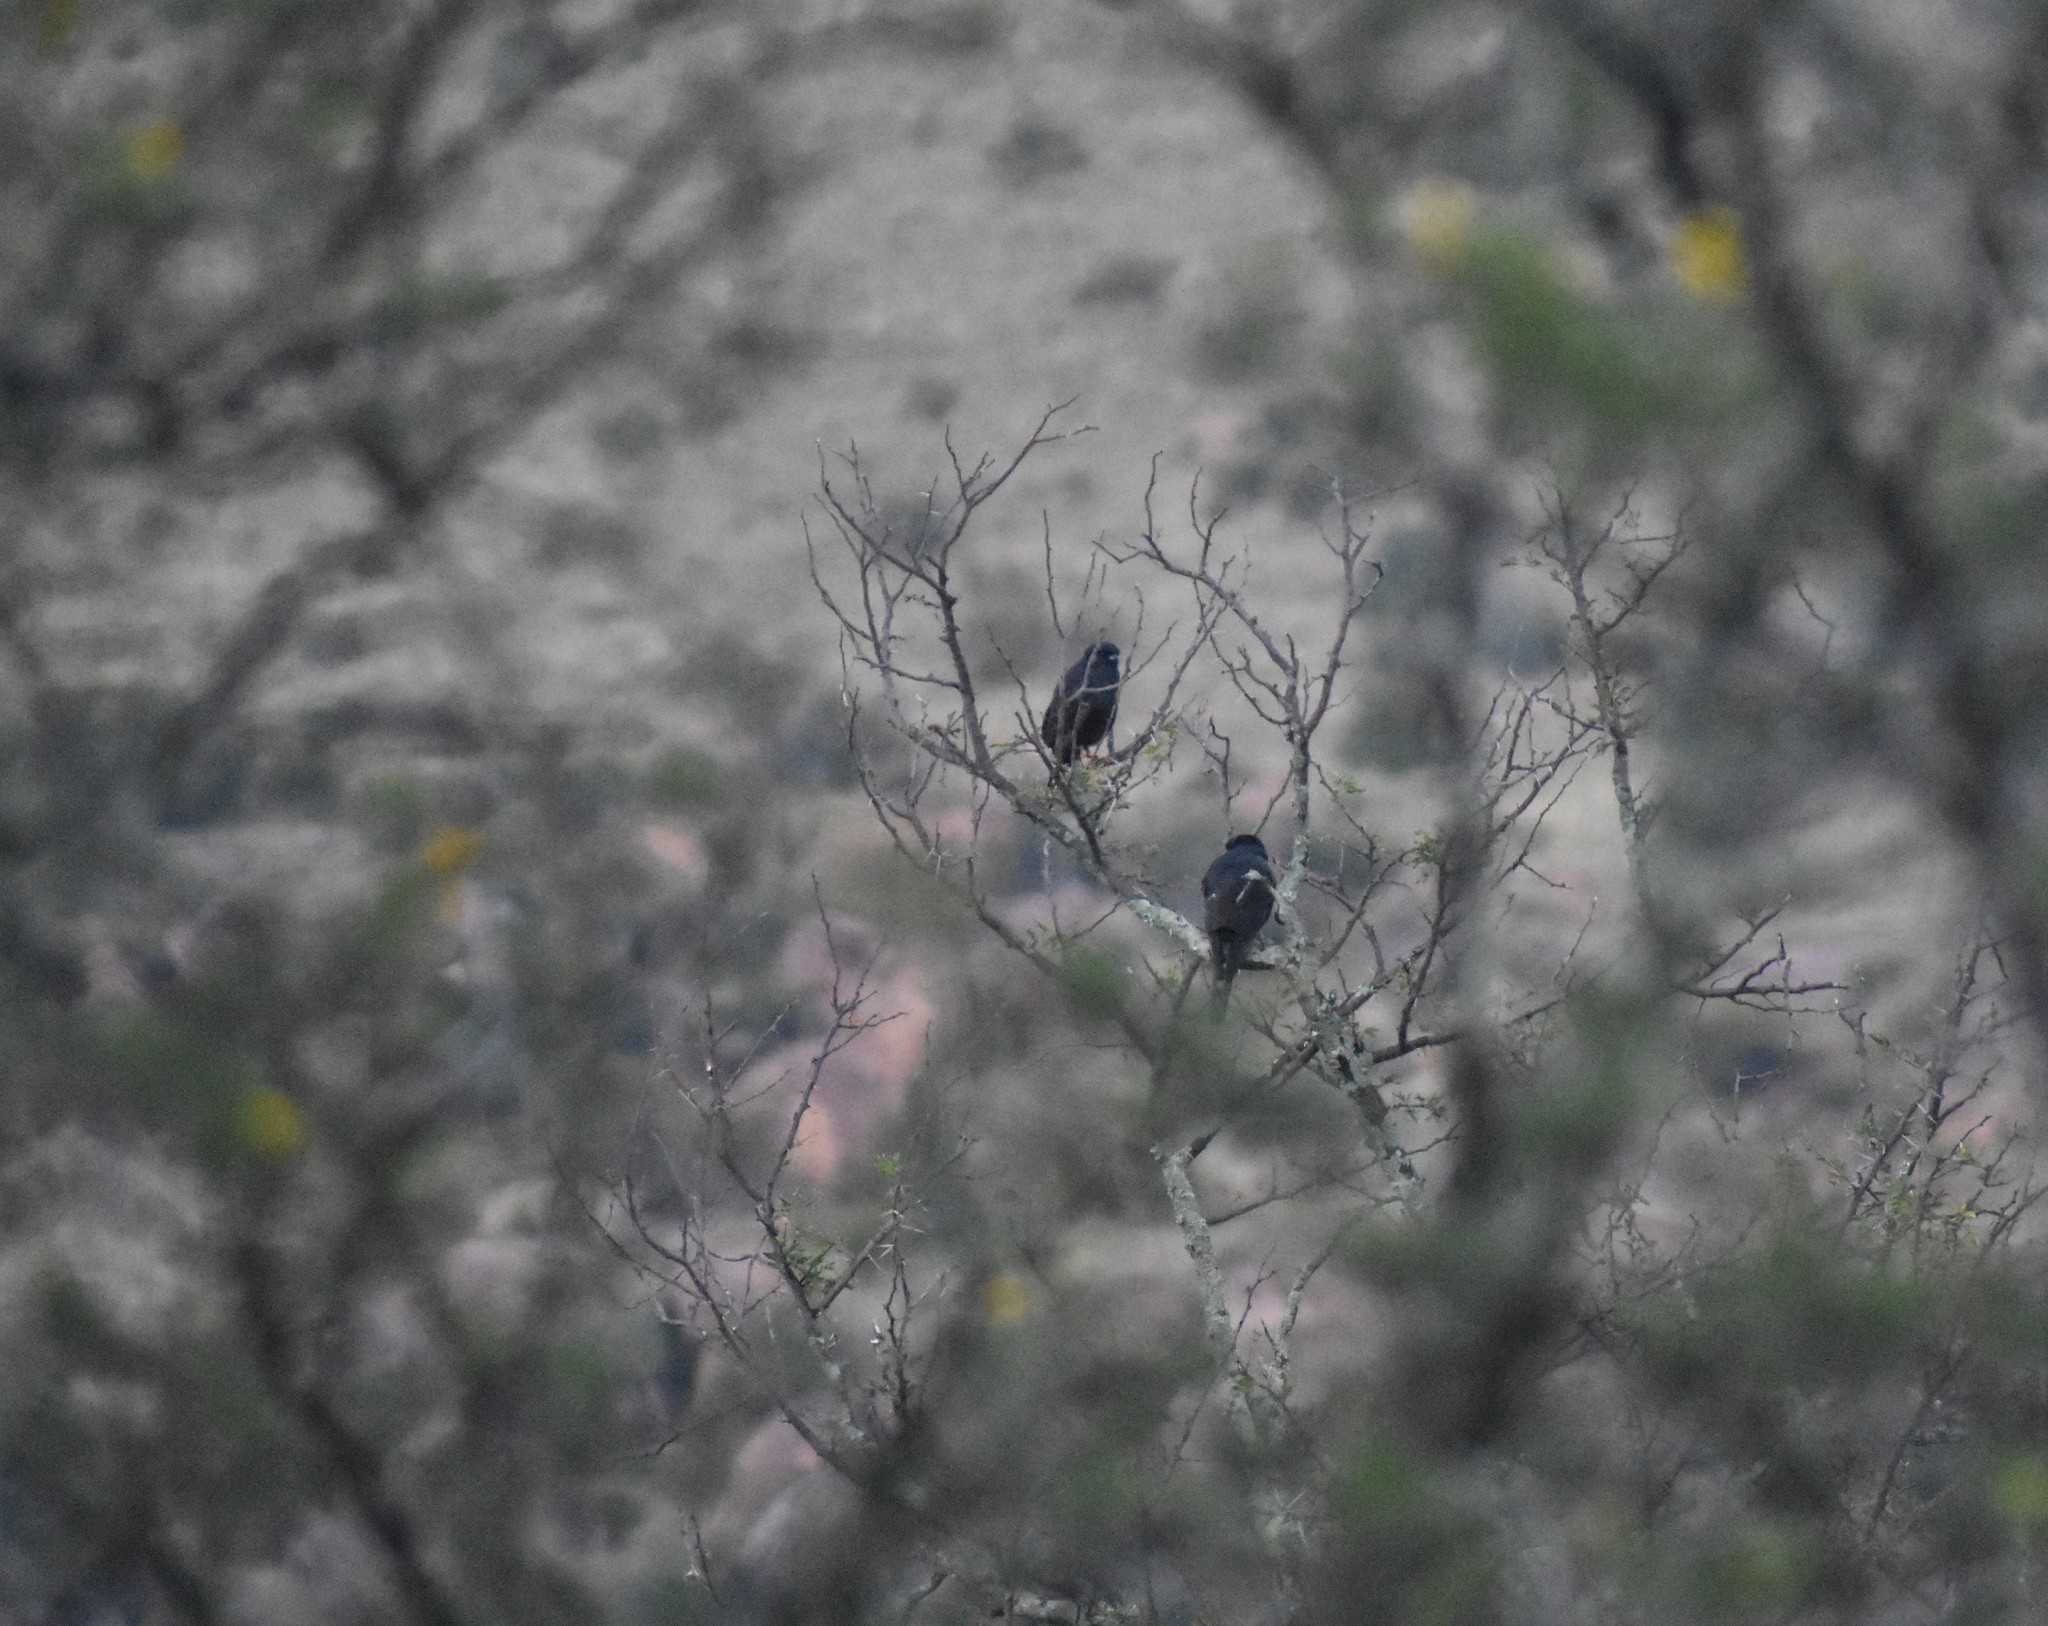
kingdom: Animalia
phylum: Chordata
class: Aves
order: Accipitriformes
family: Accipitridae
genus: Micronisus
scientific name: Micronisus gabar
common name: Gabar goshawk
